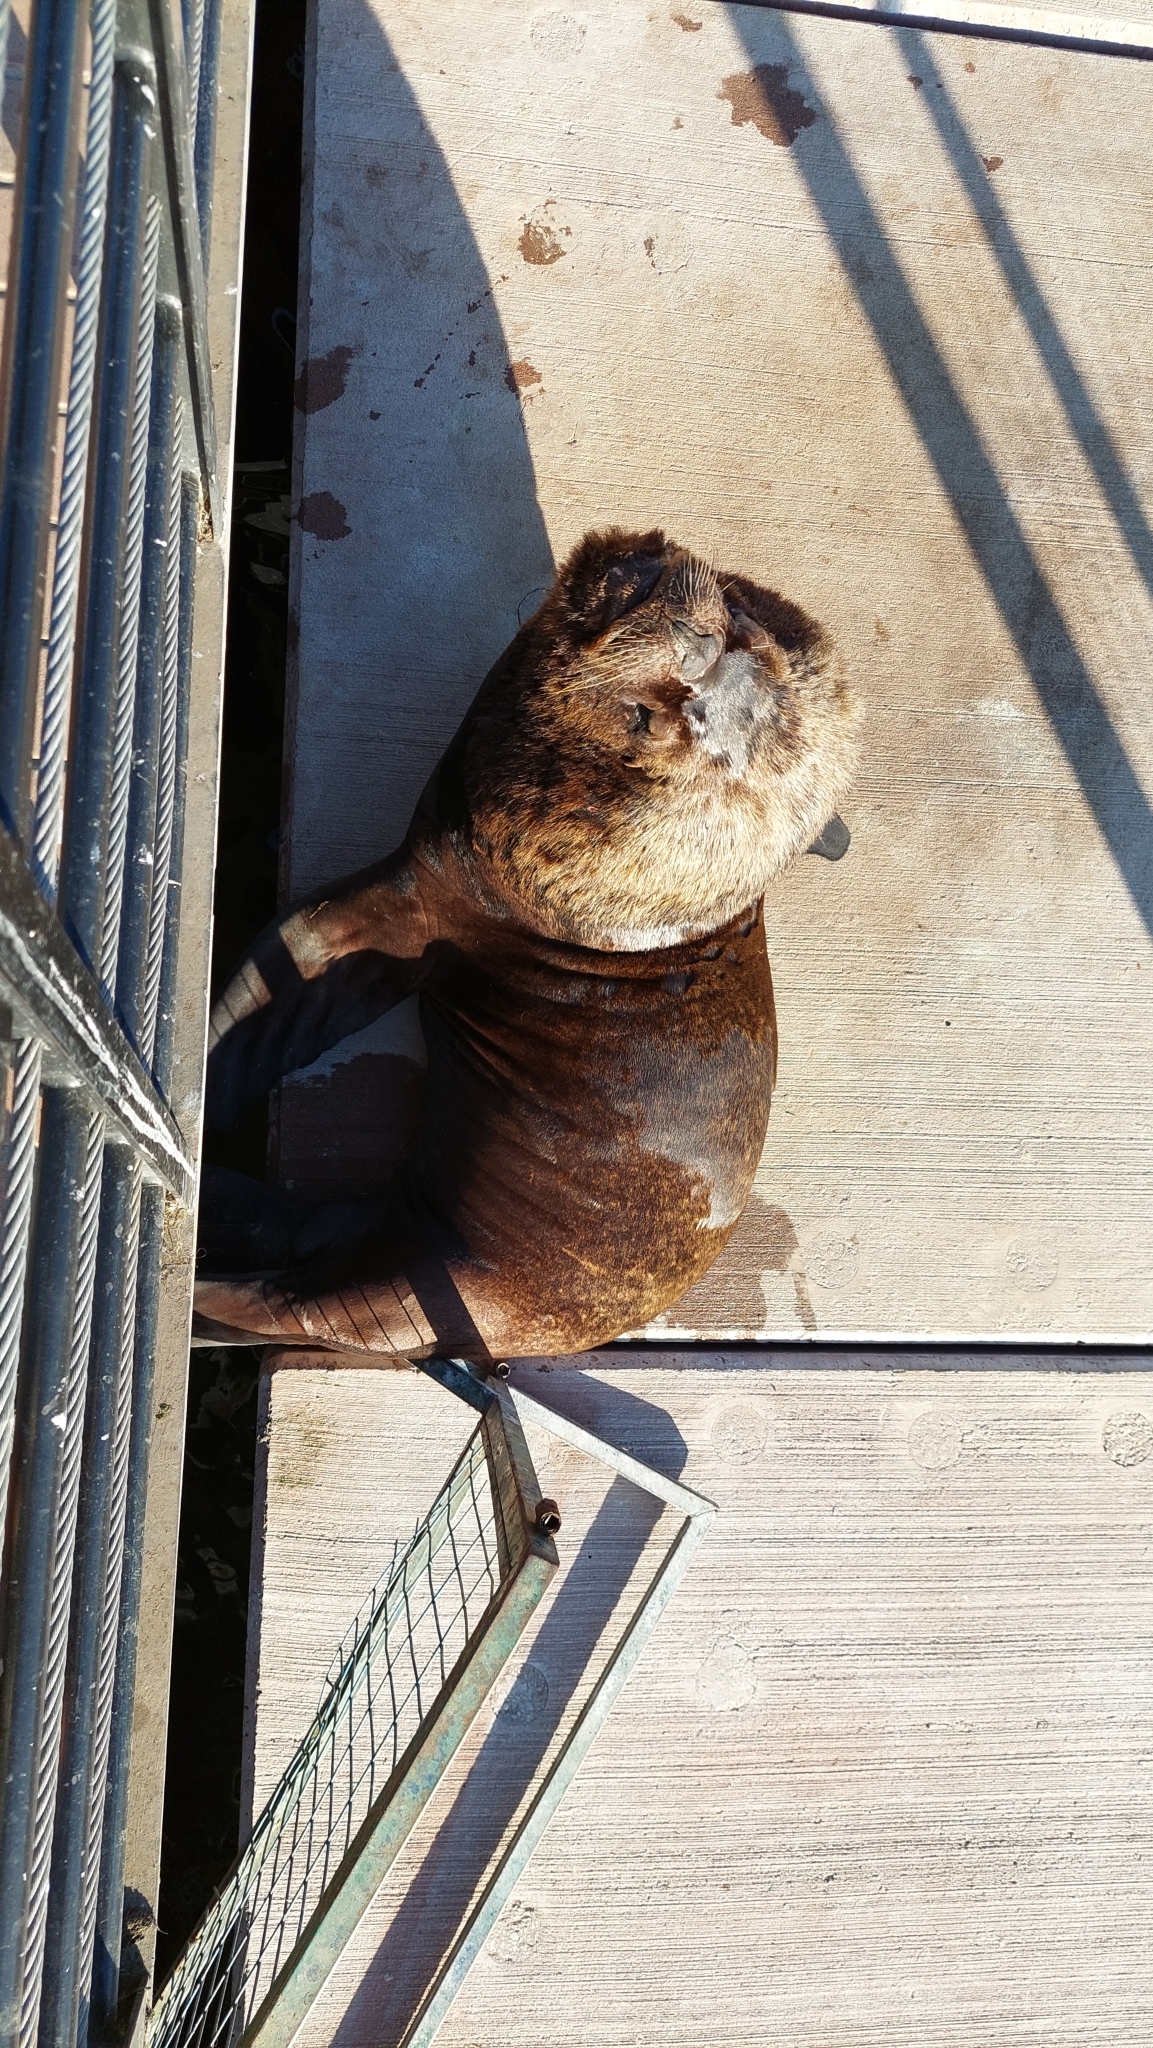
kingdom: Animalia
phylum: Chordata
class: Mammalia
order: Carnivora
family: Otariidae
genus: Otaria
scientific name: Otaria byronia
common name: South american sea lion
